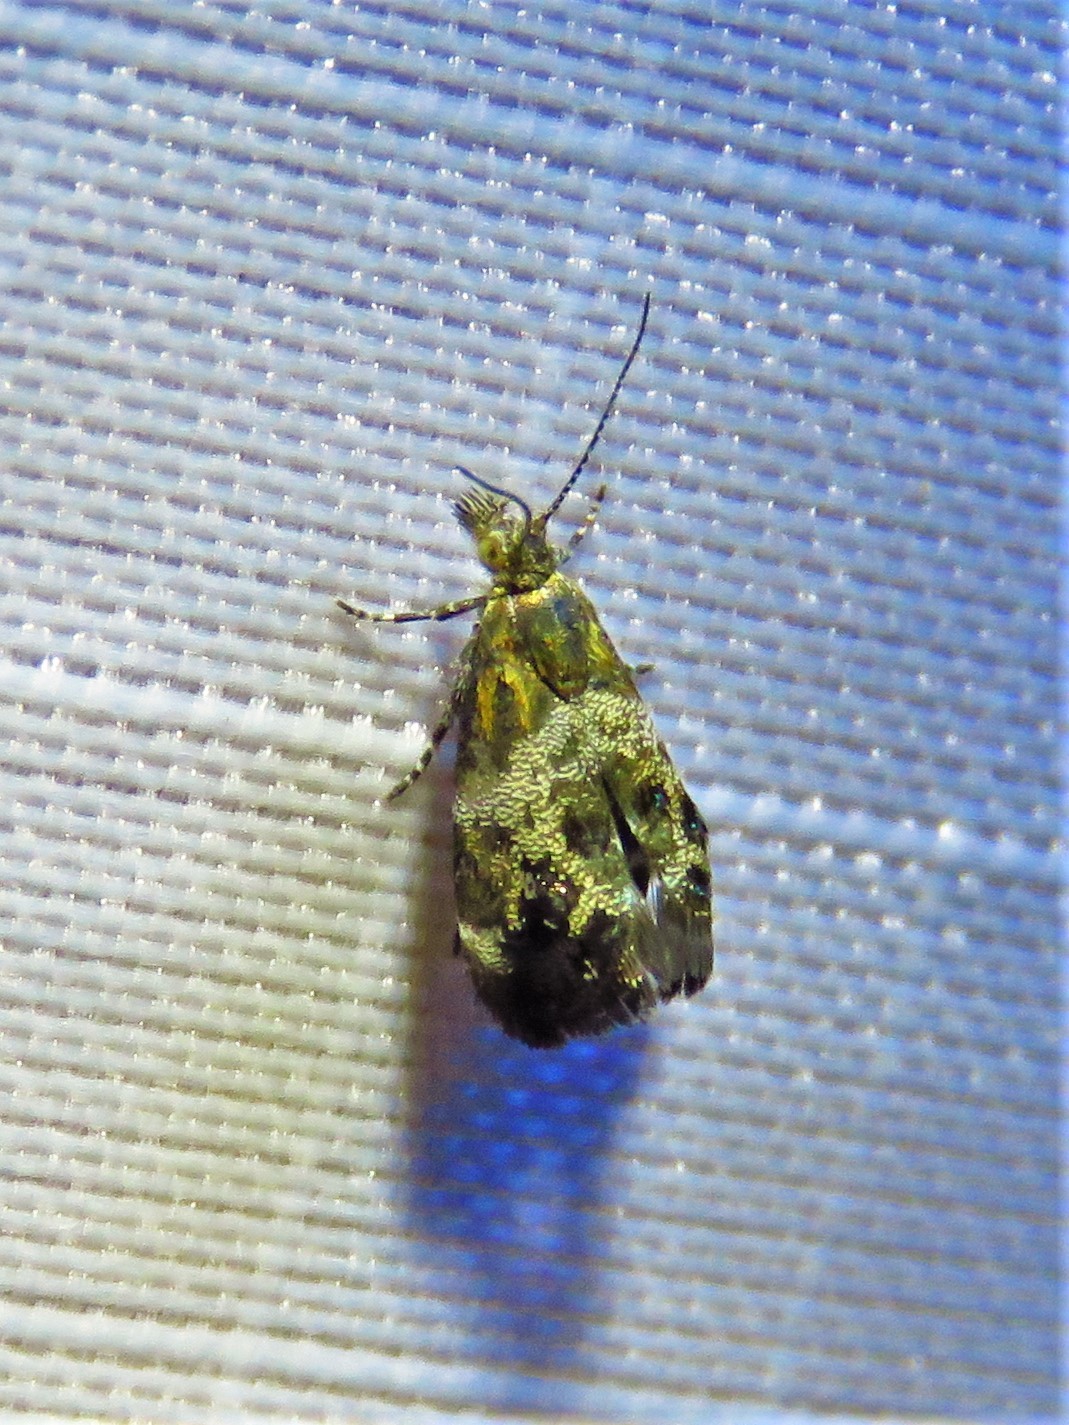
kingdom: Animalia
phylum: Arthropoda
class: Insecta
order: Lepidoptera
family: Choreutidae
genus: Tebenna
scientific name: Tebenna gnaphaliella
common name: Everlasting tebenna moth
